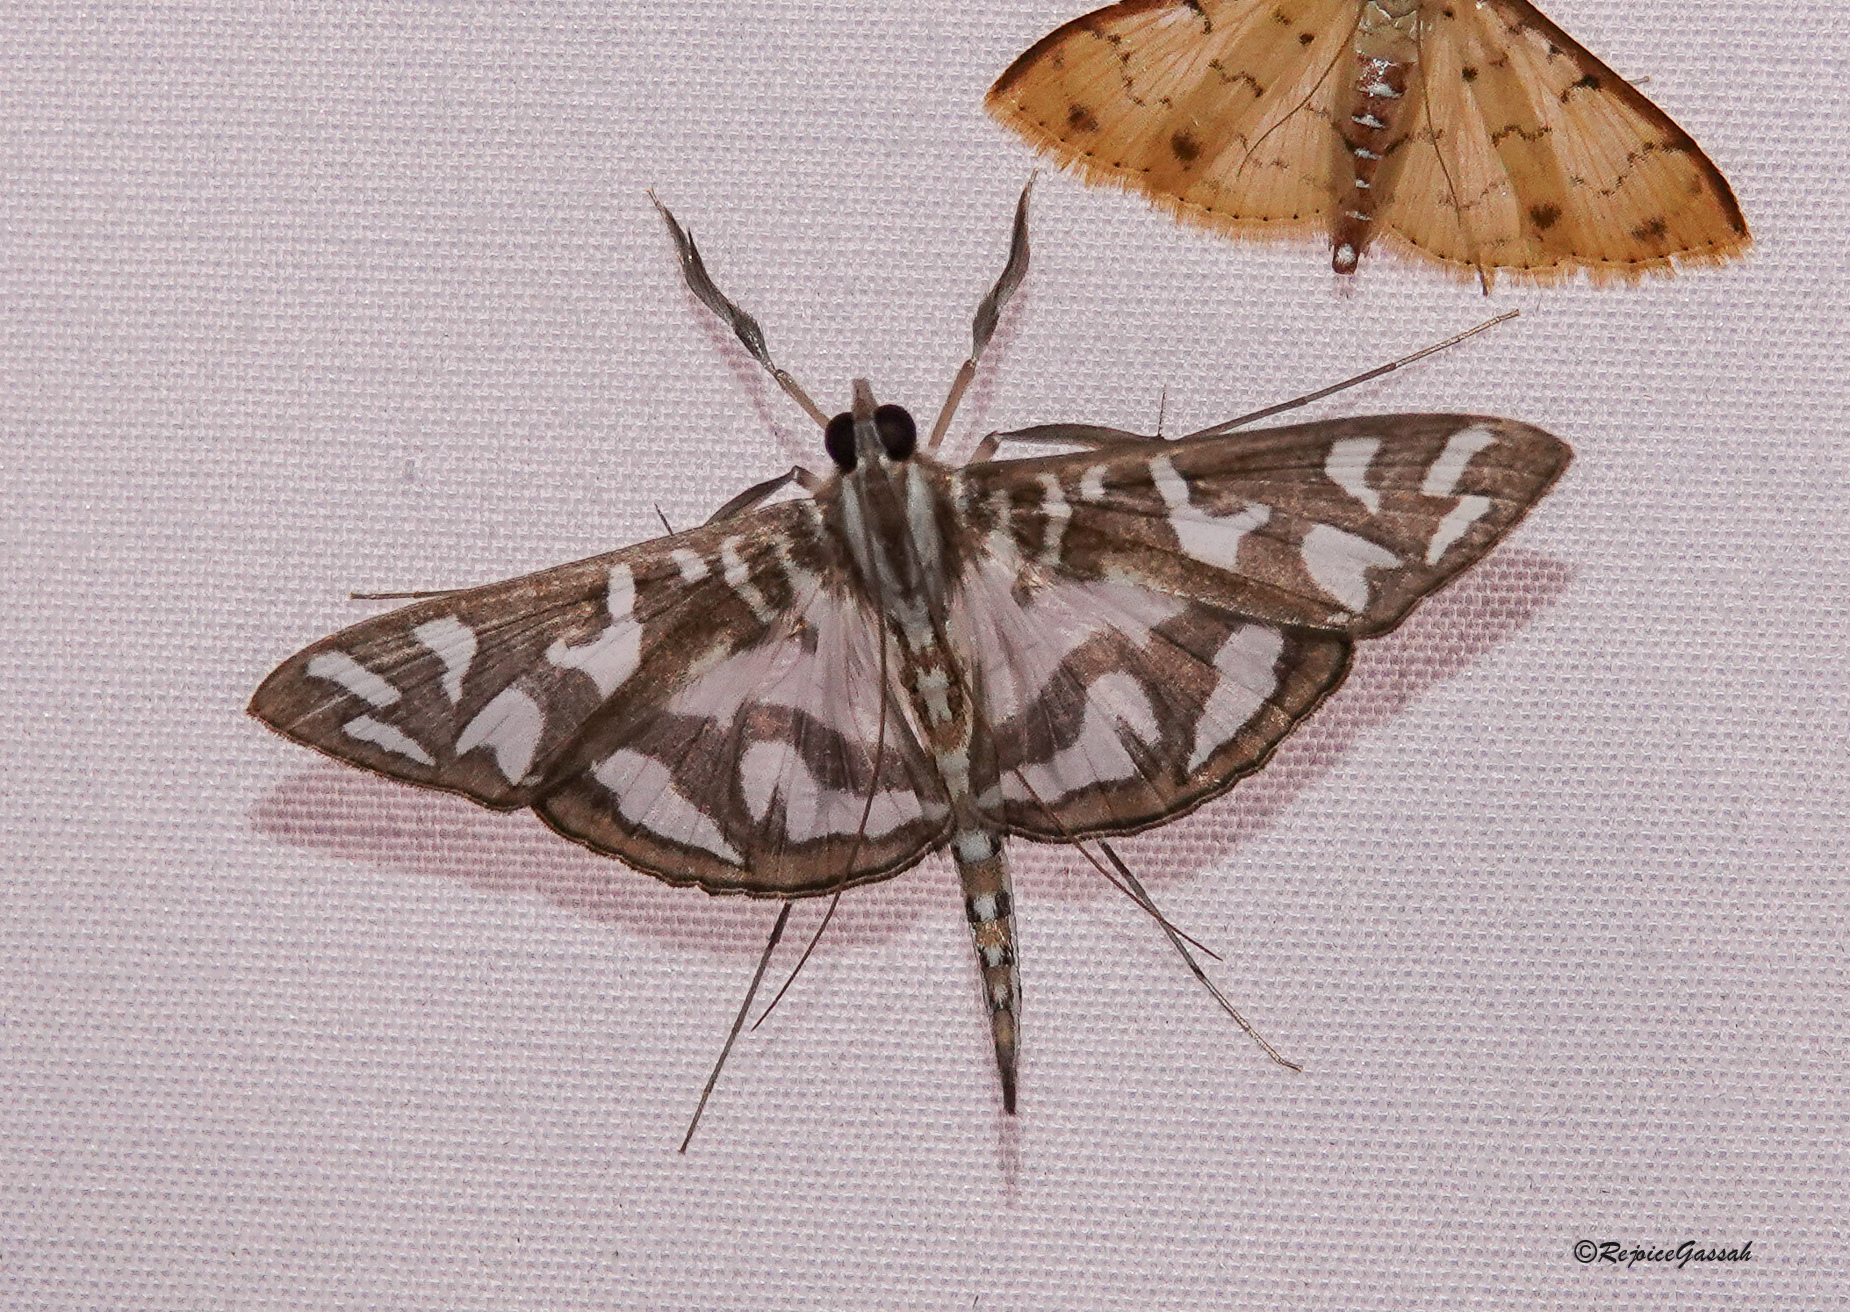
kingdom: Animalia
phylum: Arthropoda
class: Insecta
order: Lepidoptera
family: Crambidae
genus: Nausinoe
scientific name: Nausinoe perspectata
